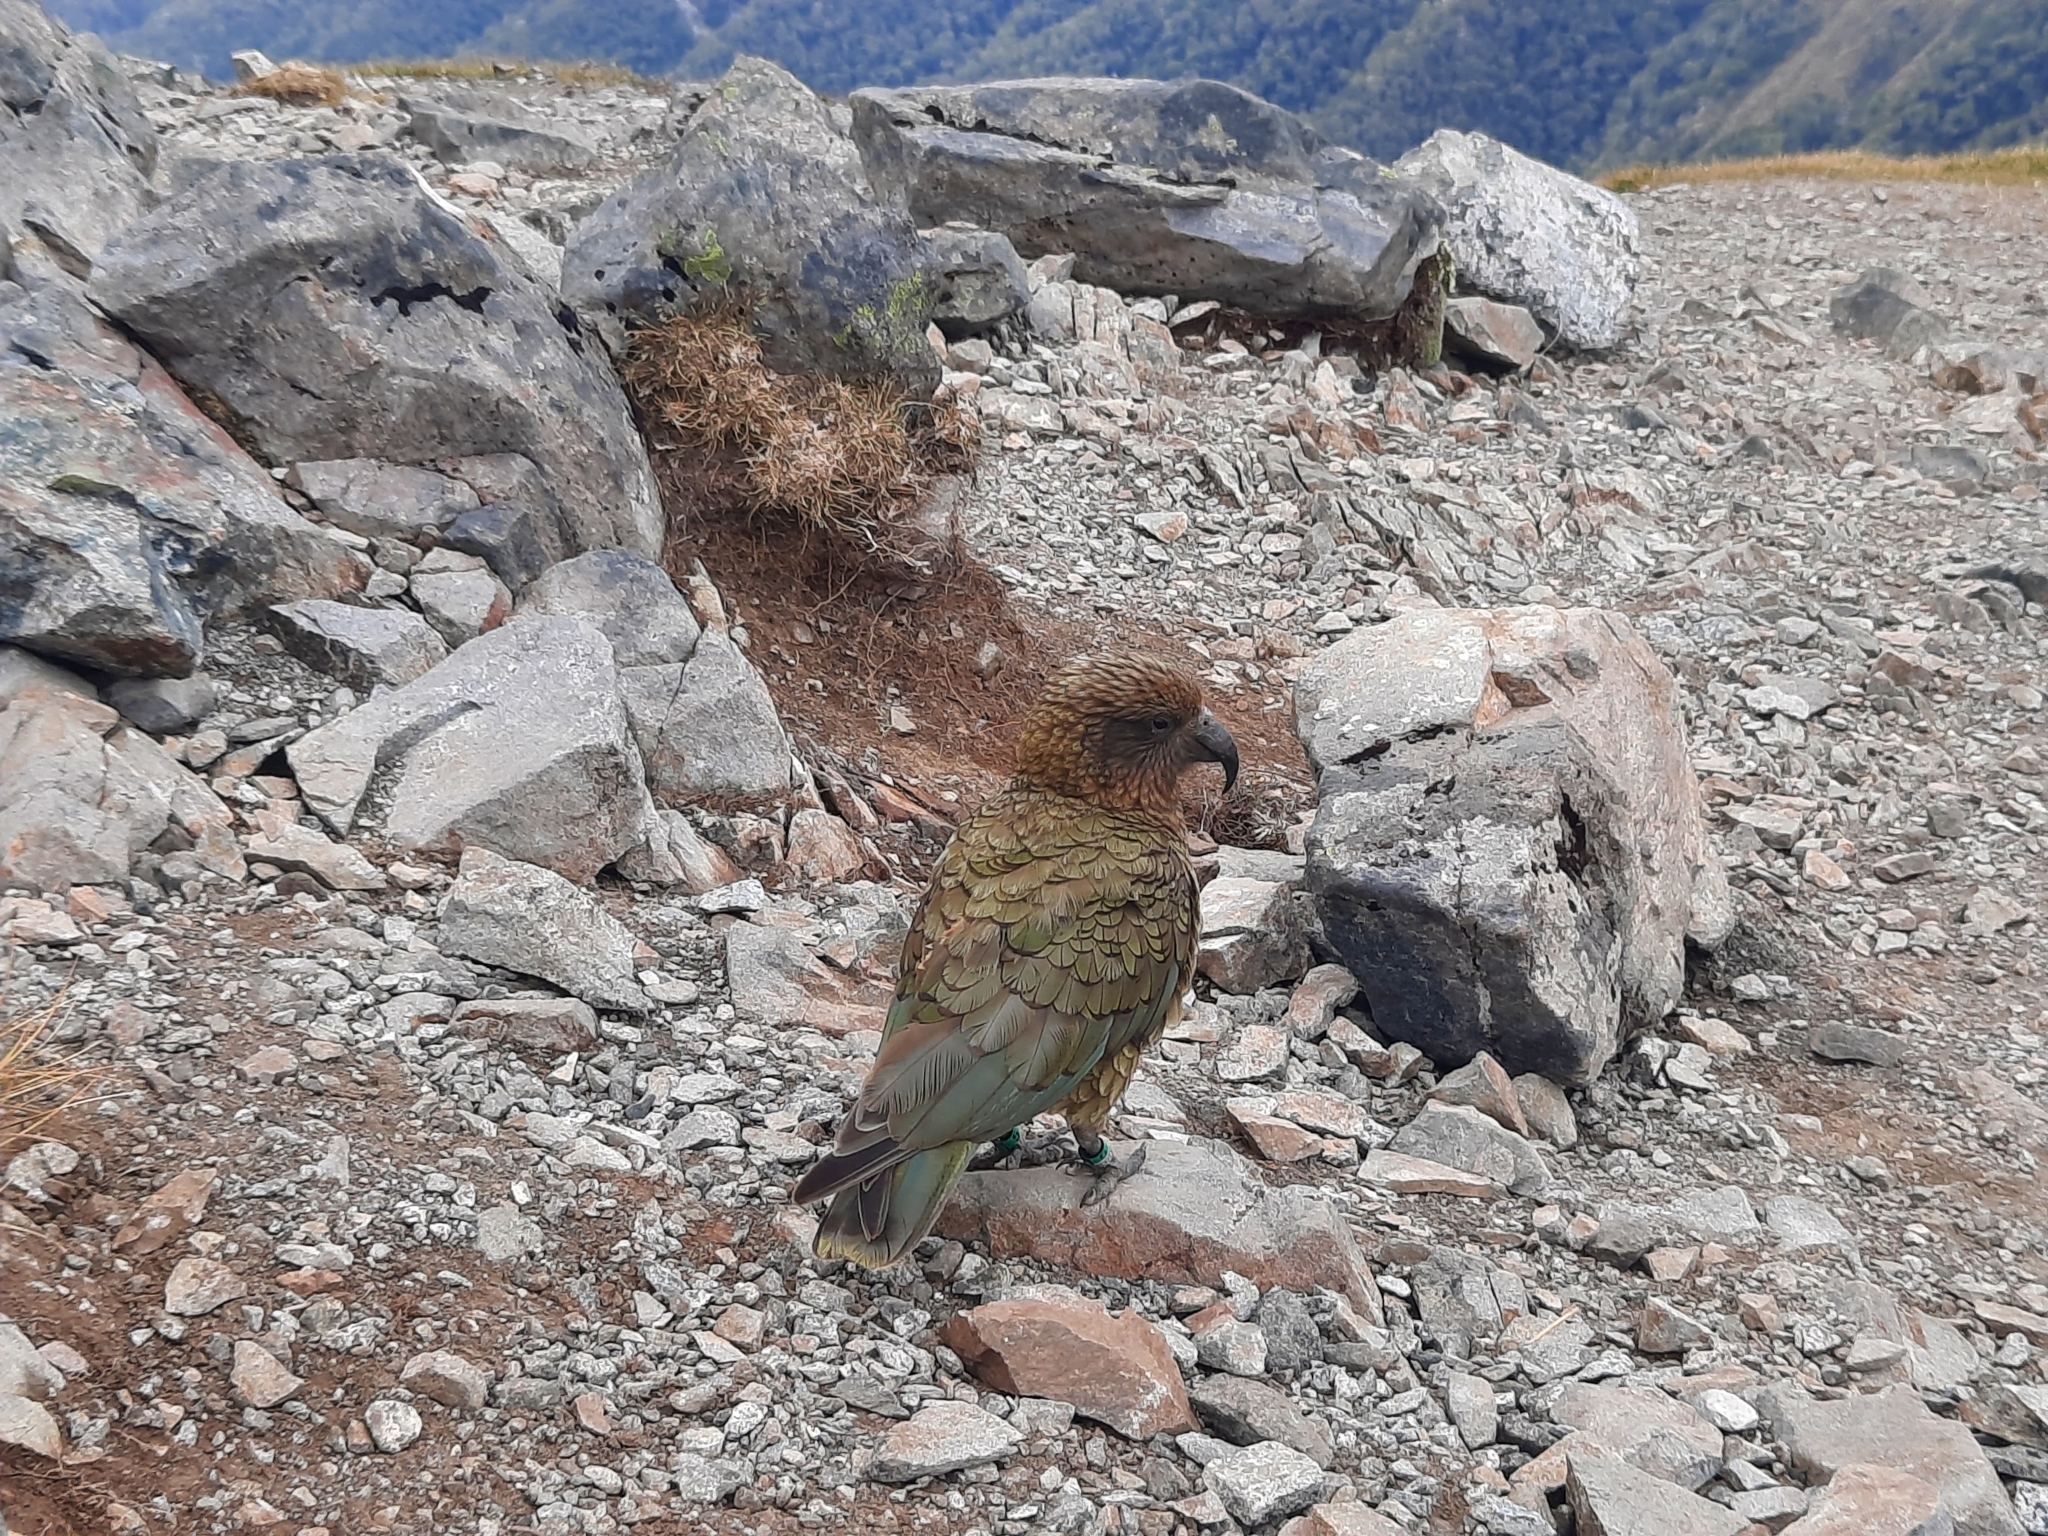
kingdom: Animalia
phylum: Chordata
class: Aves
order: Psittaciformes
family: Psittacidae
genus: Nestor
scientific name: Nestor notabilis
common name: Kea
